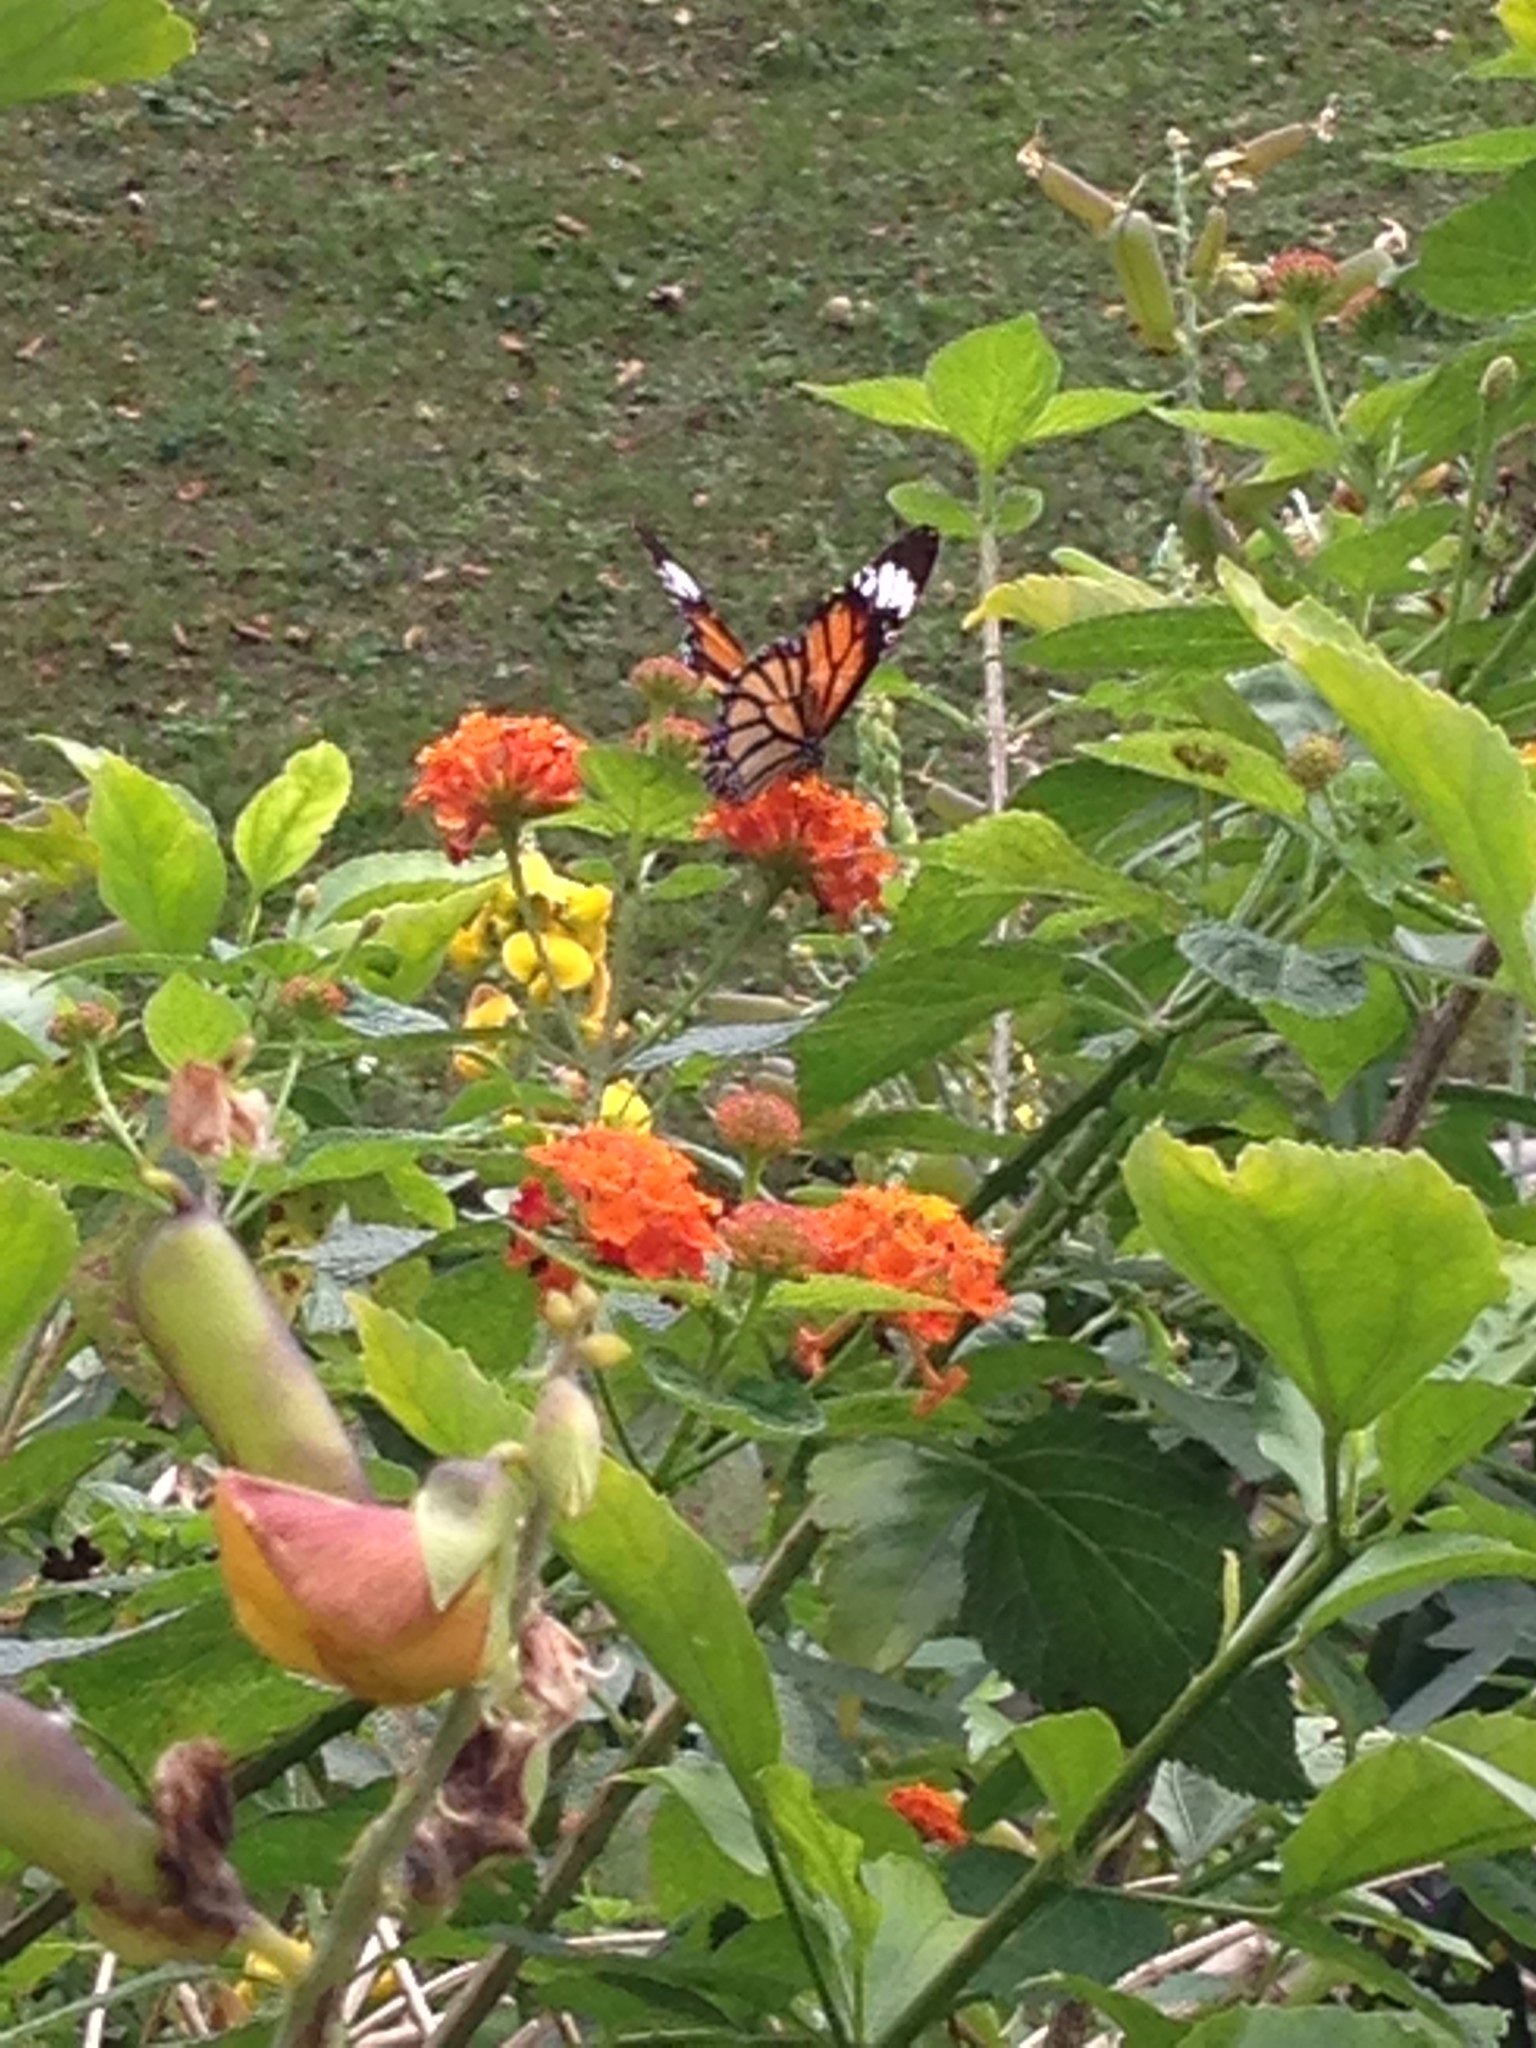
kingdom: Animalia
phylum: Arthropoda
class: Insecta
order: Lepidoptera
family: Nymphalidae
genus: Danaus
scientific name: Danaus genutia
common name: Common tiger butterfly
